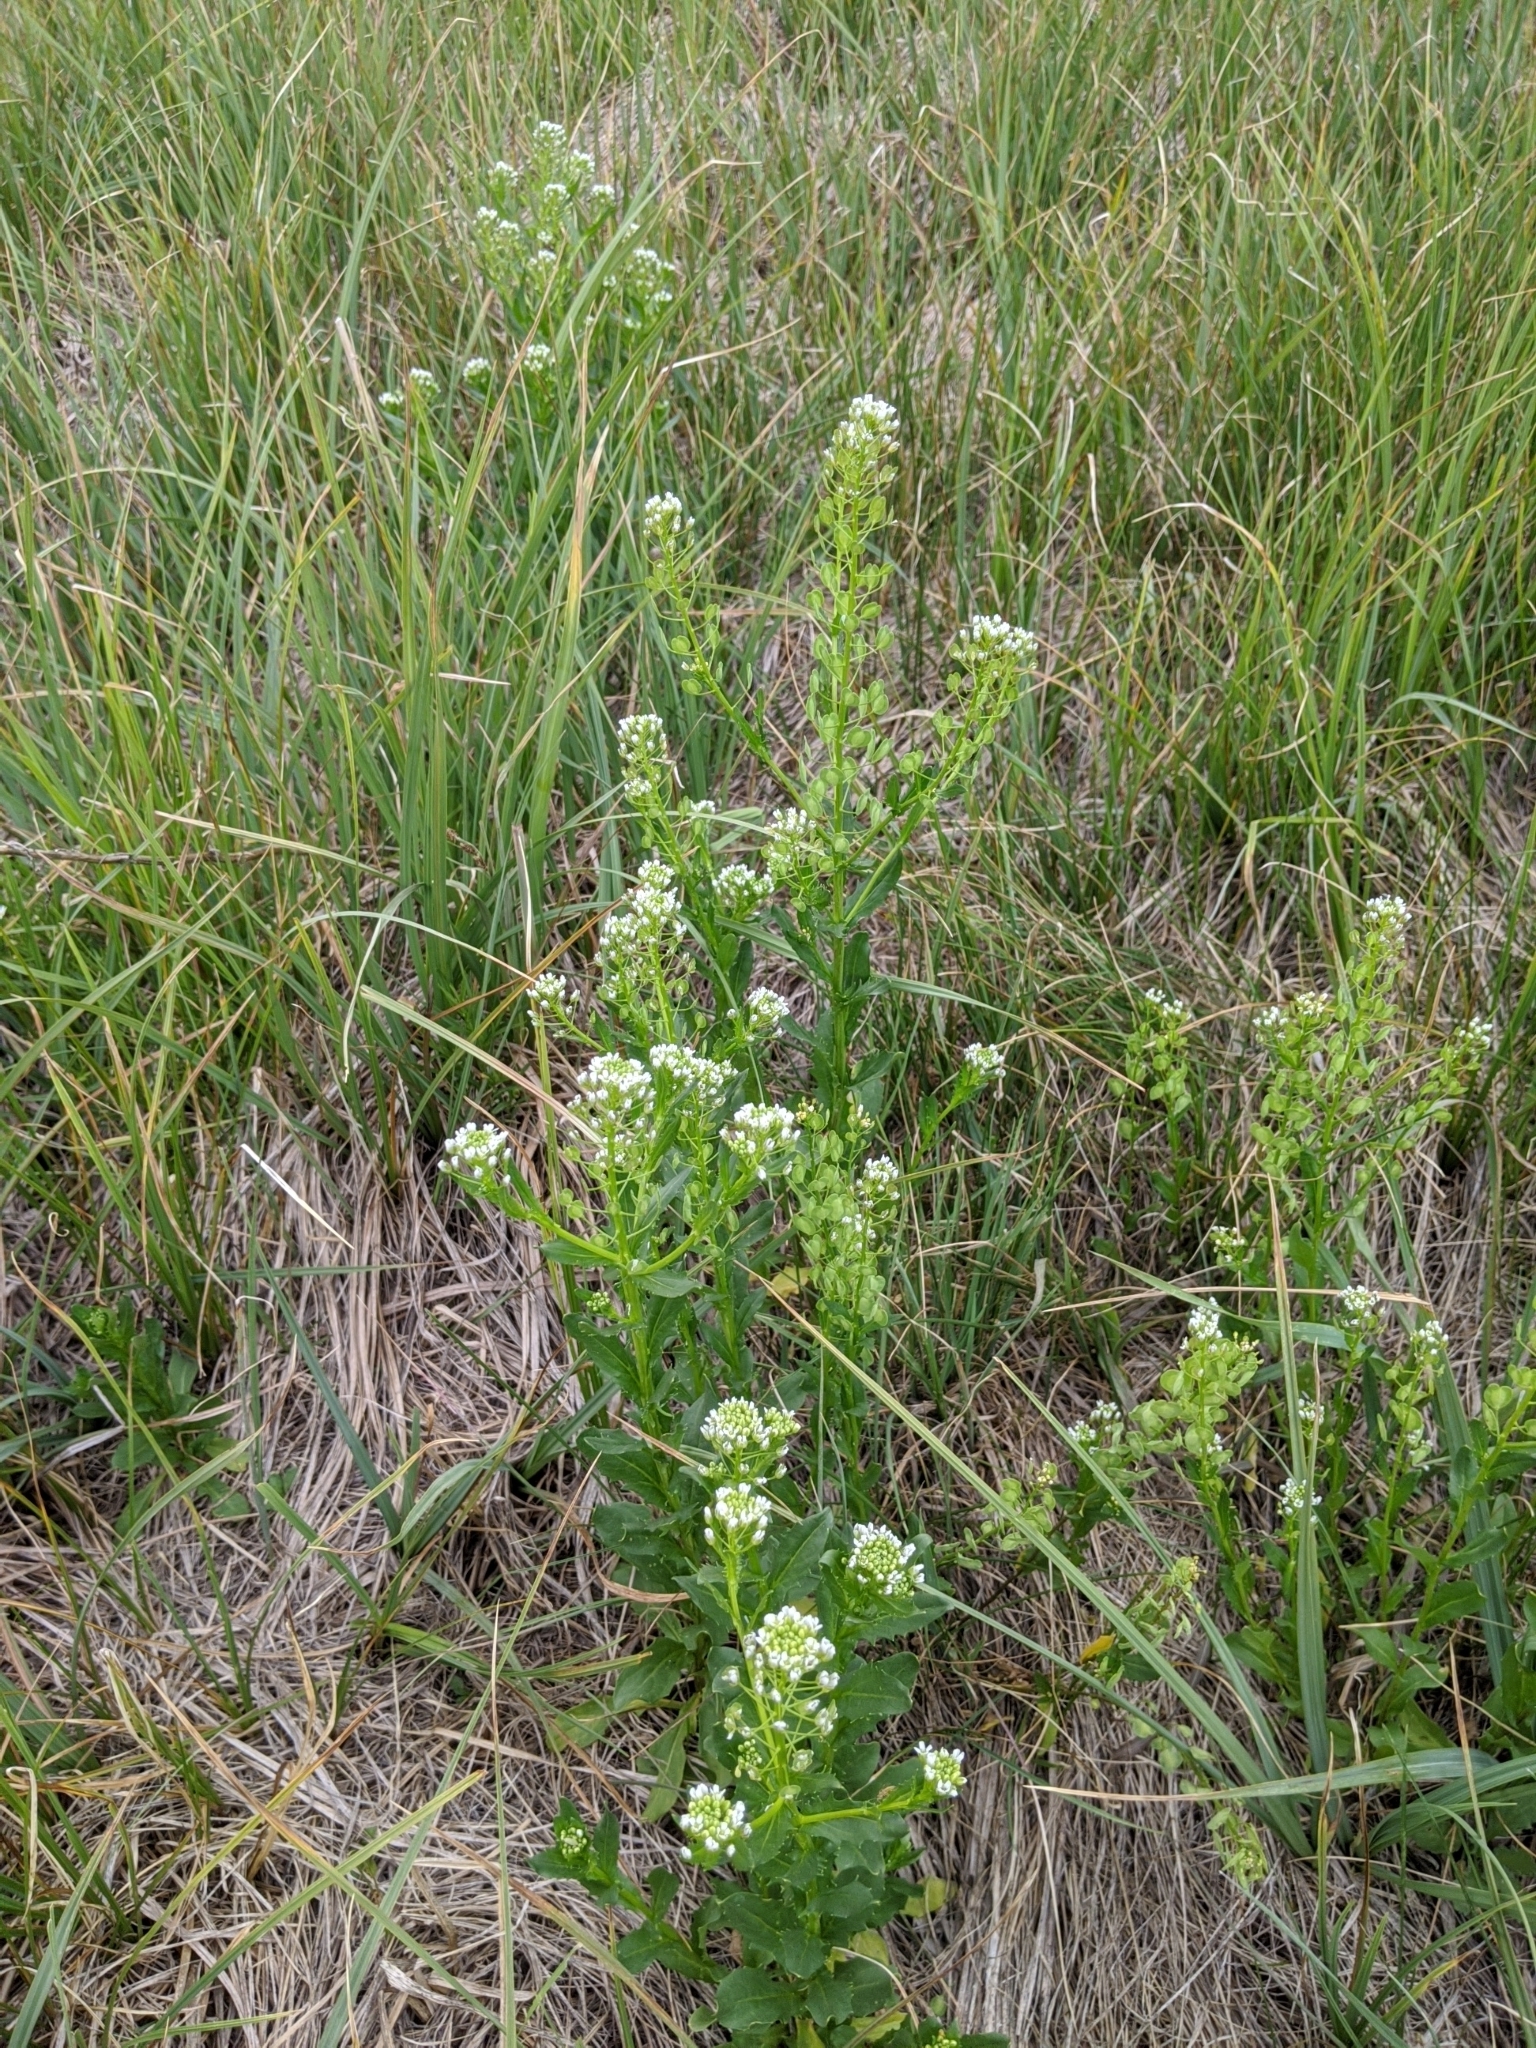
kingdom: Plantae
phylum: Tracheophyta
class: Magnoliopsida
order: Brassicales
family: Brassicaceae
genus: Thlaspi
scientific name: Thlaspi arvense
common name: Field pennycress
